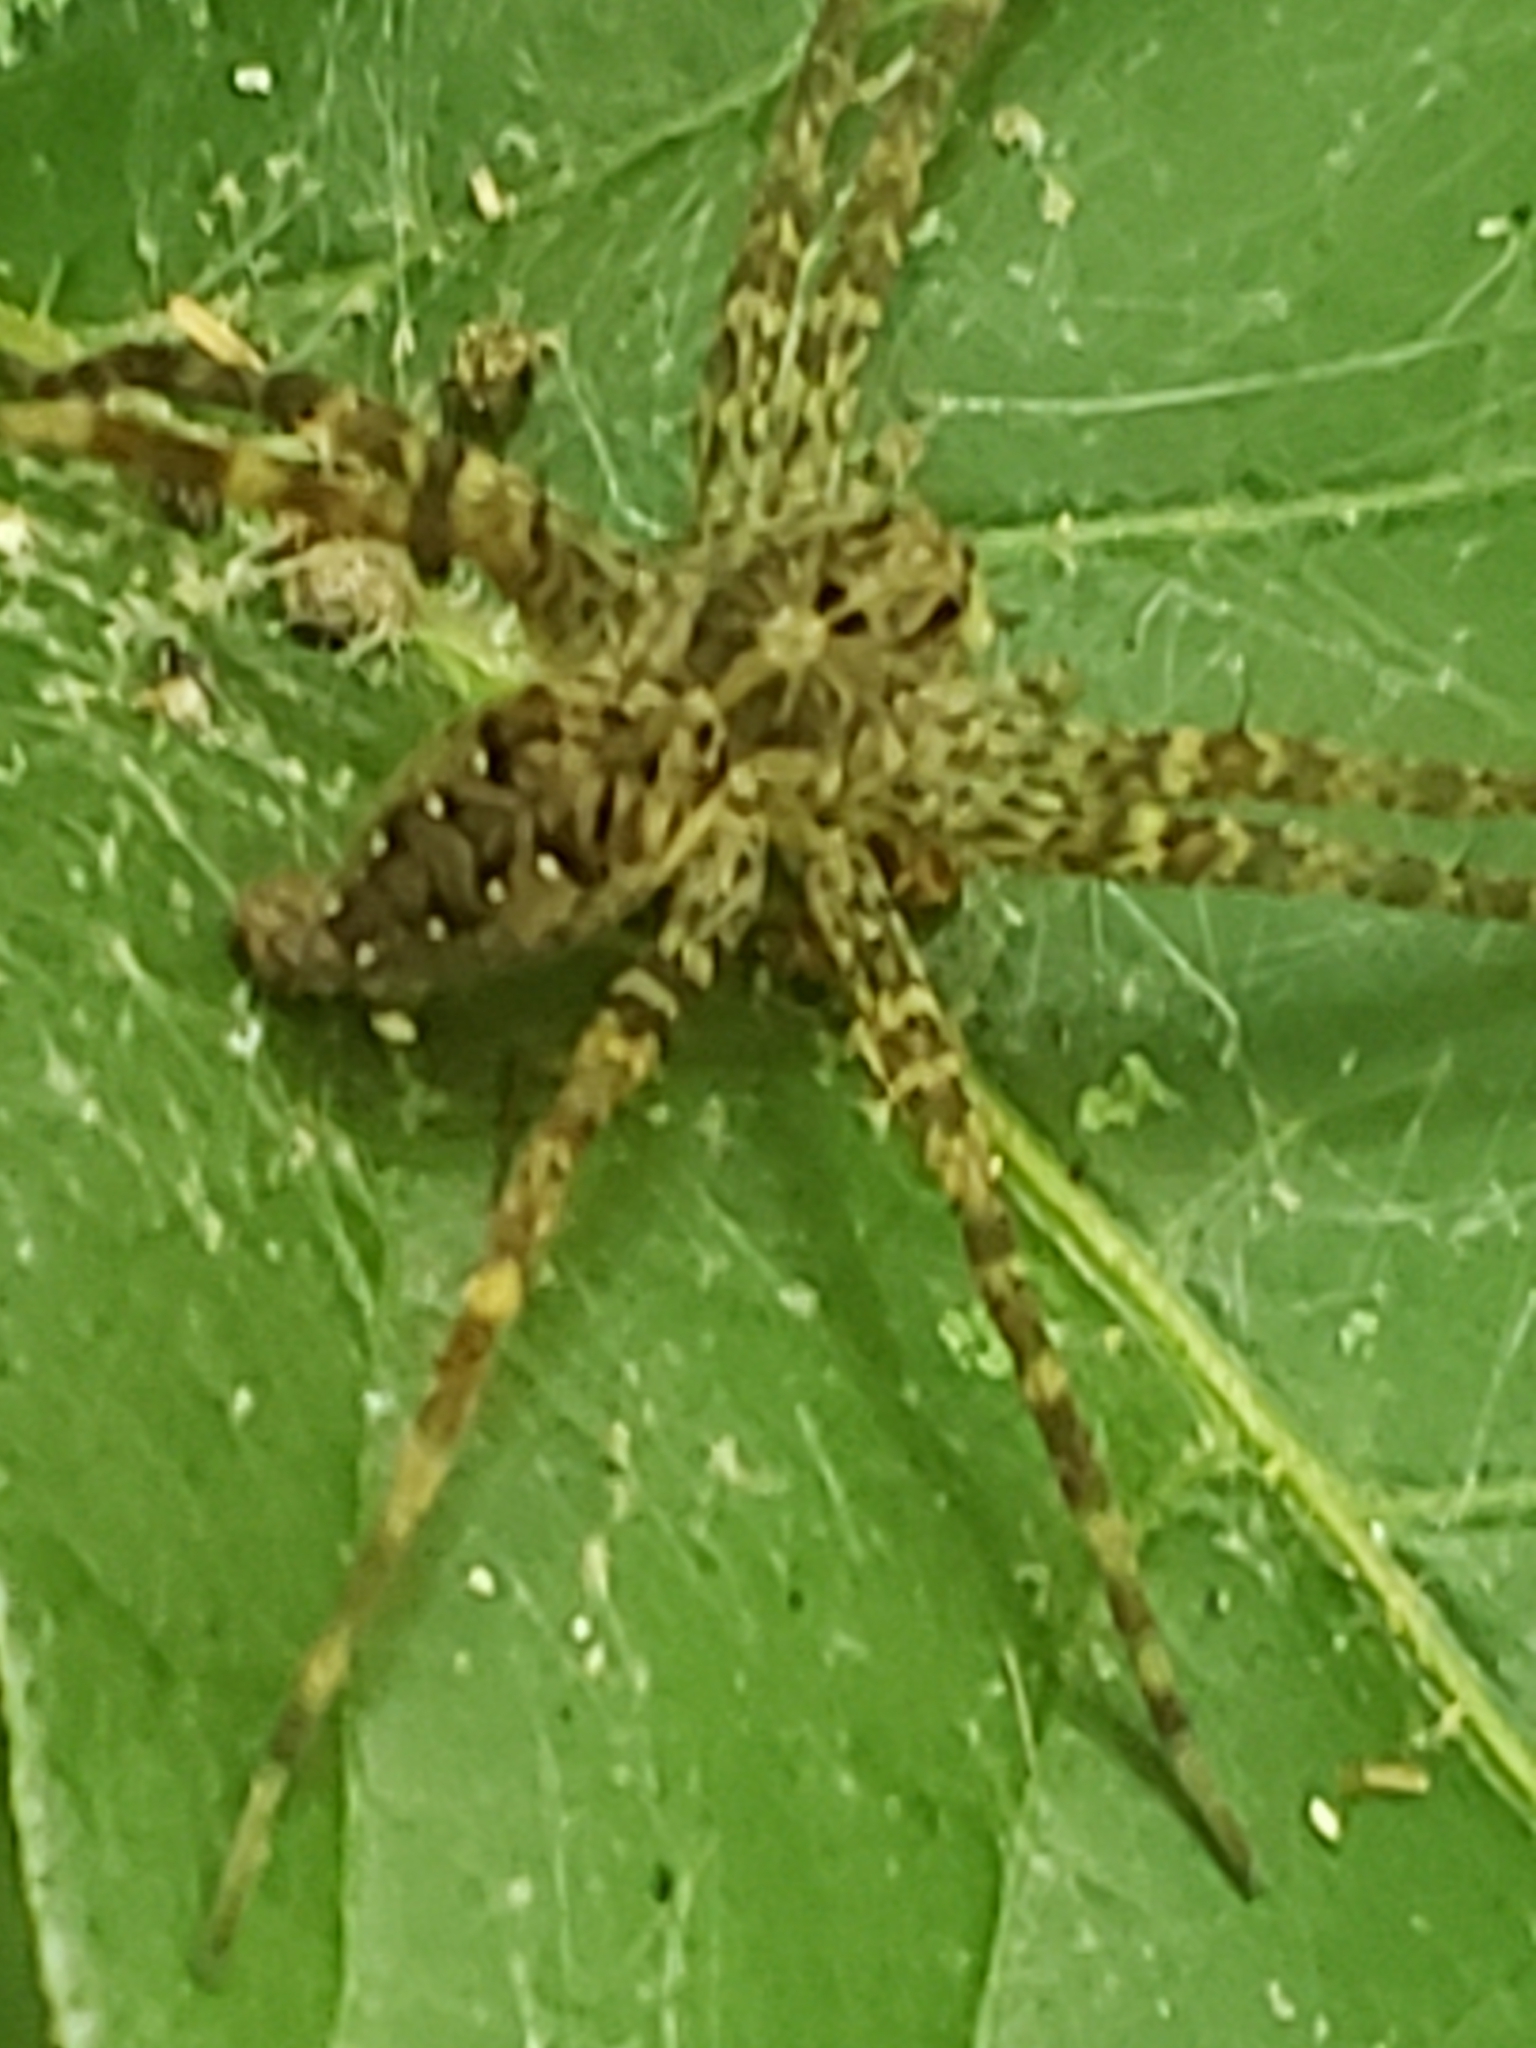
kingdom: Animalia
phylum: Arthropoda
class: Arachnida
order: Araneae
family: Pisauridae
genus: Dolomedes
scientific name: Dolomedes vittatus
